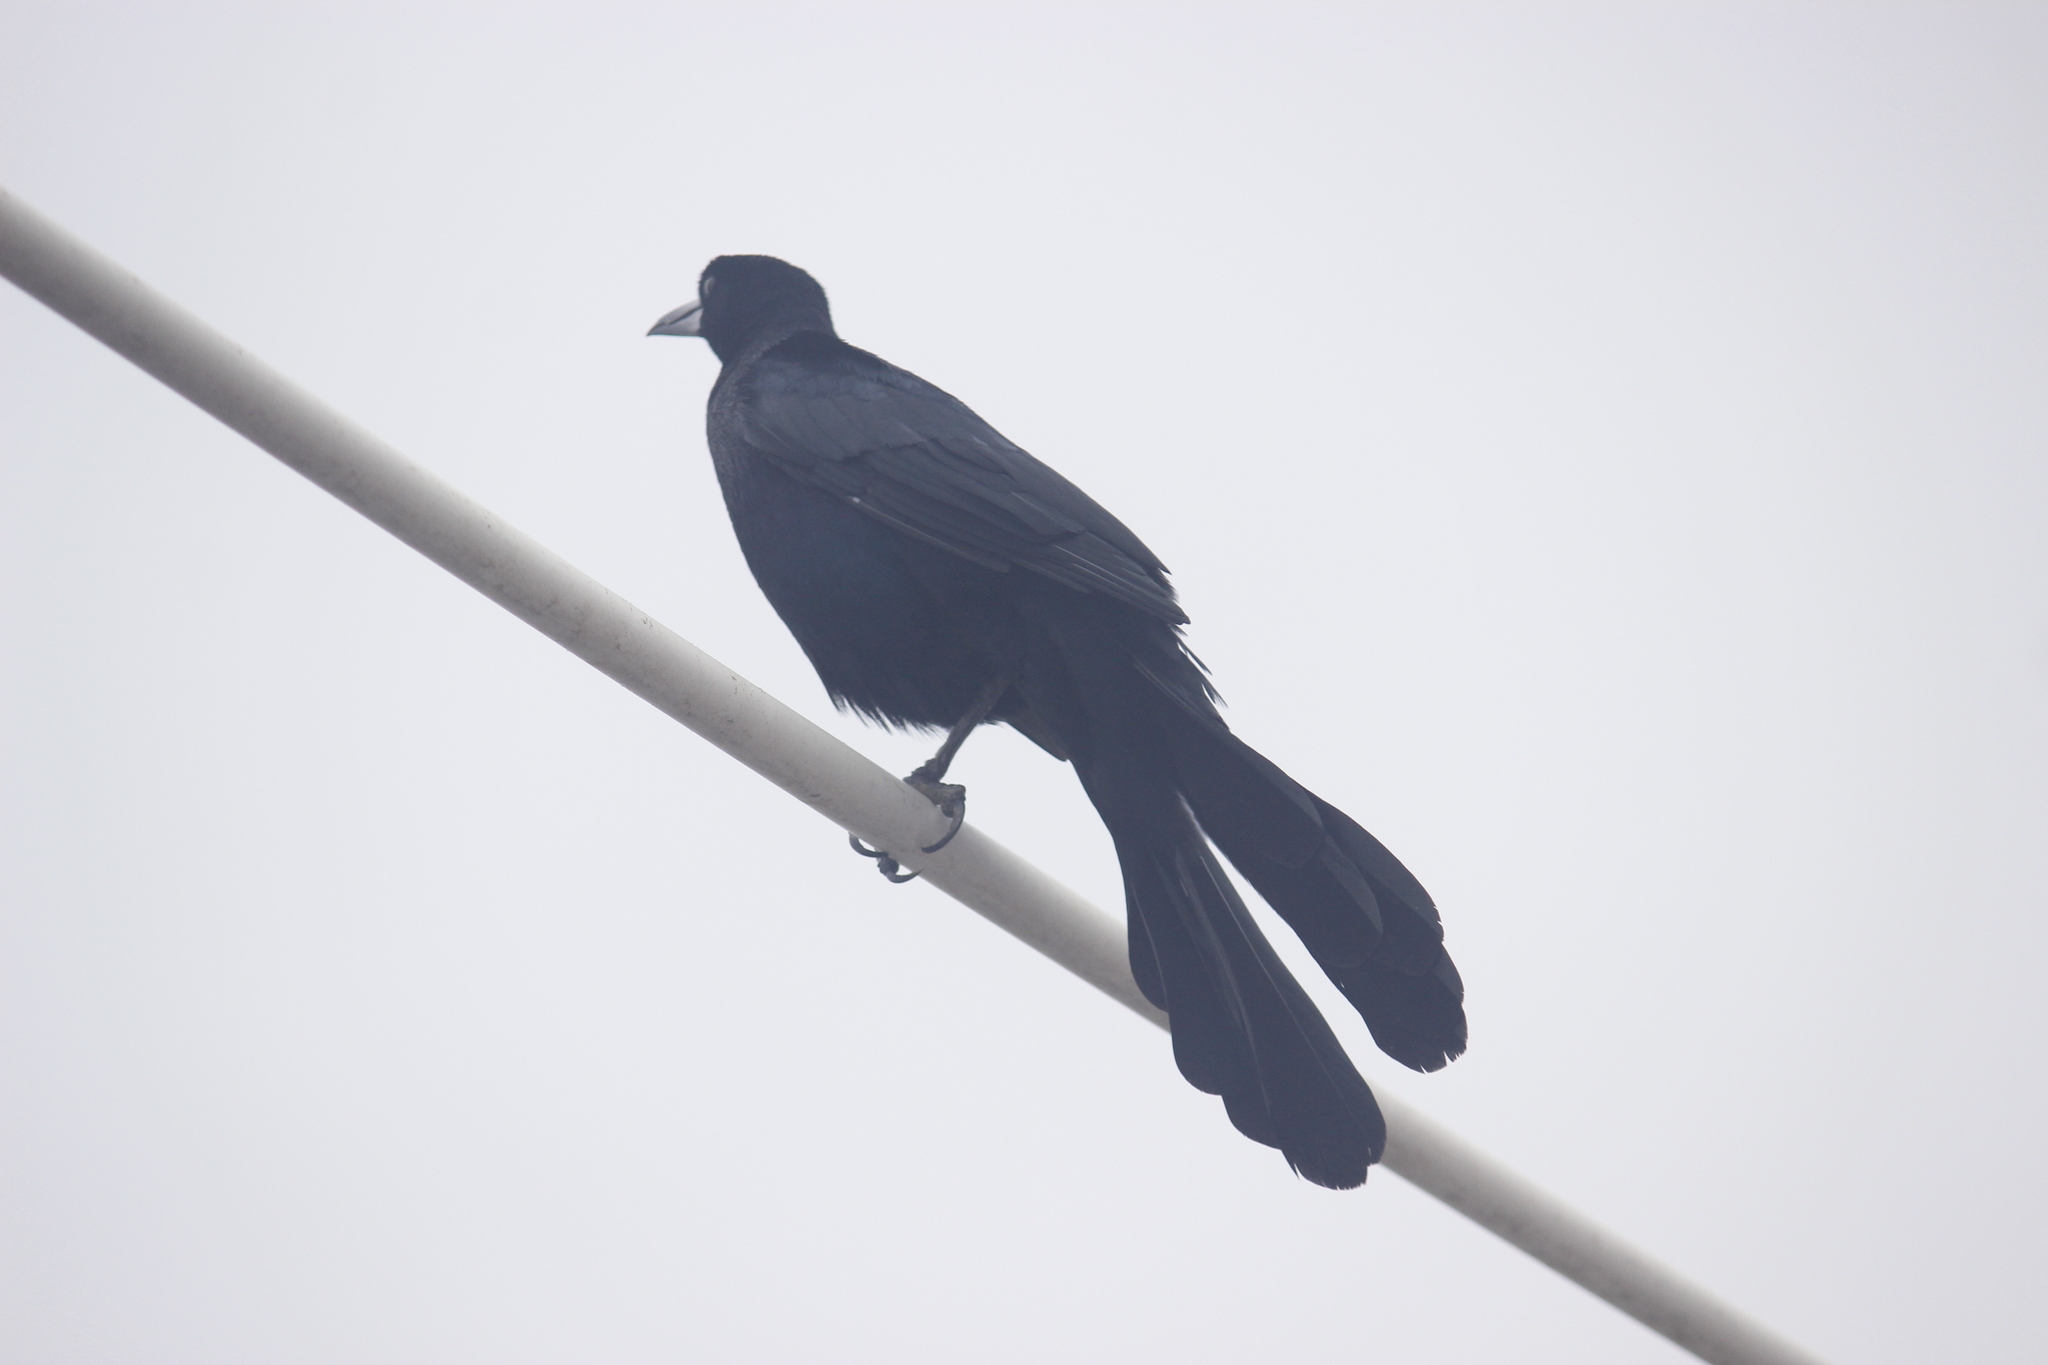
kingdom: Animalia
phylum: Chordata
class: Aves
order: Passeriformes
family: Icteridae
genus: Quiscalus
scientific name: Quiscalus mexicanus
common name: Great-tailed grackle
